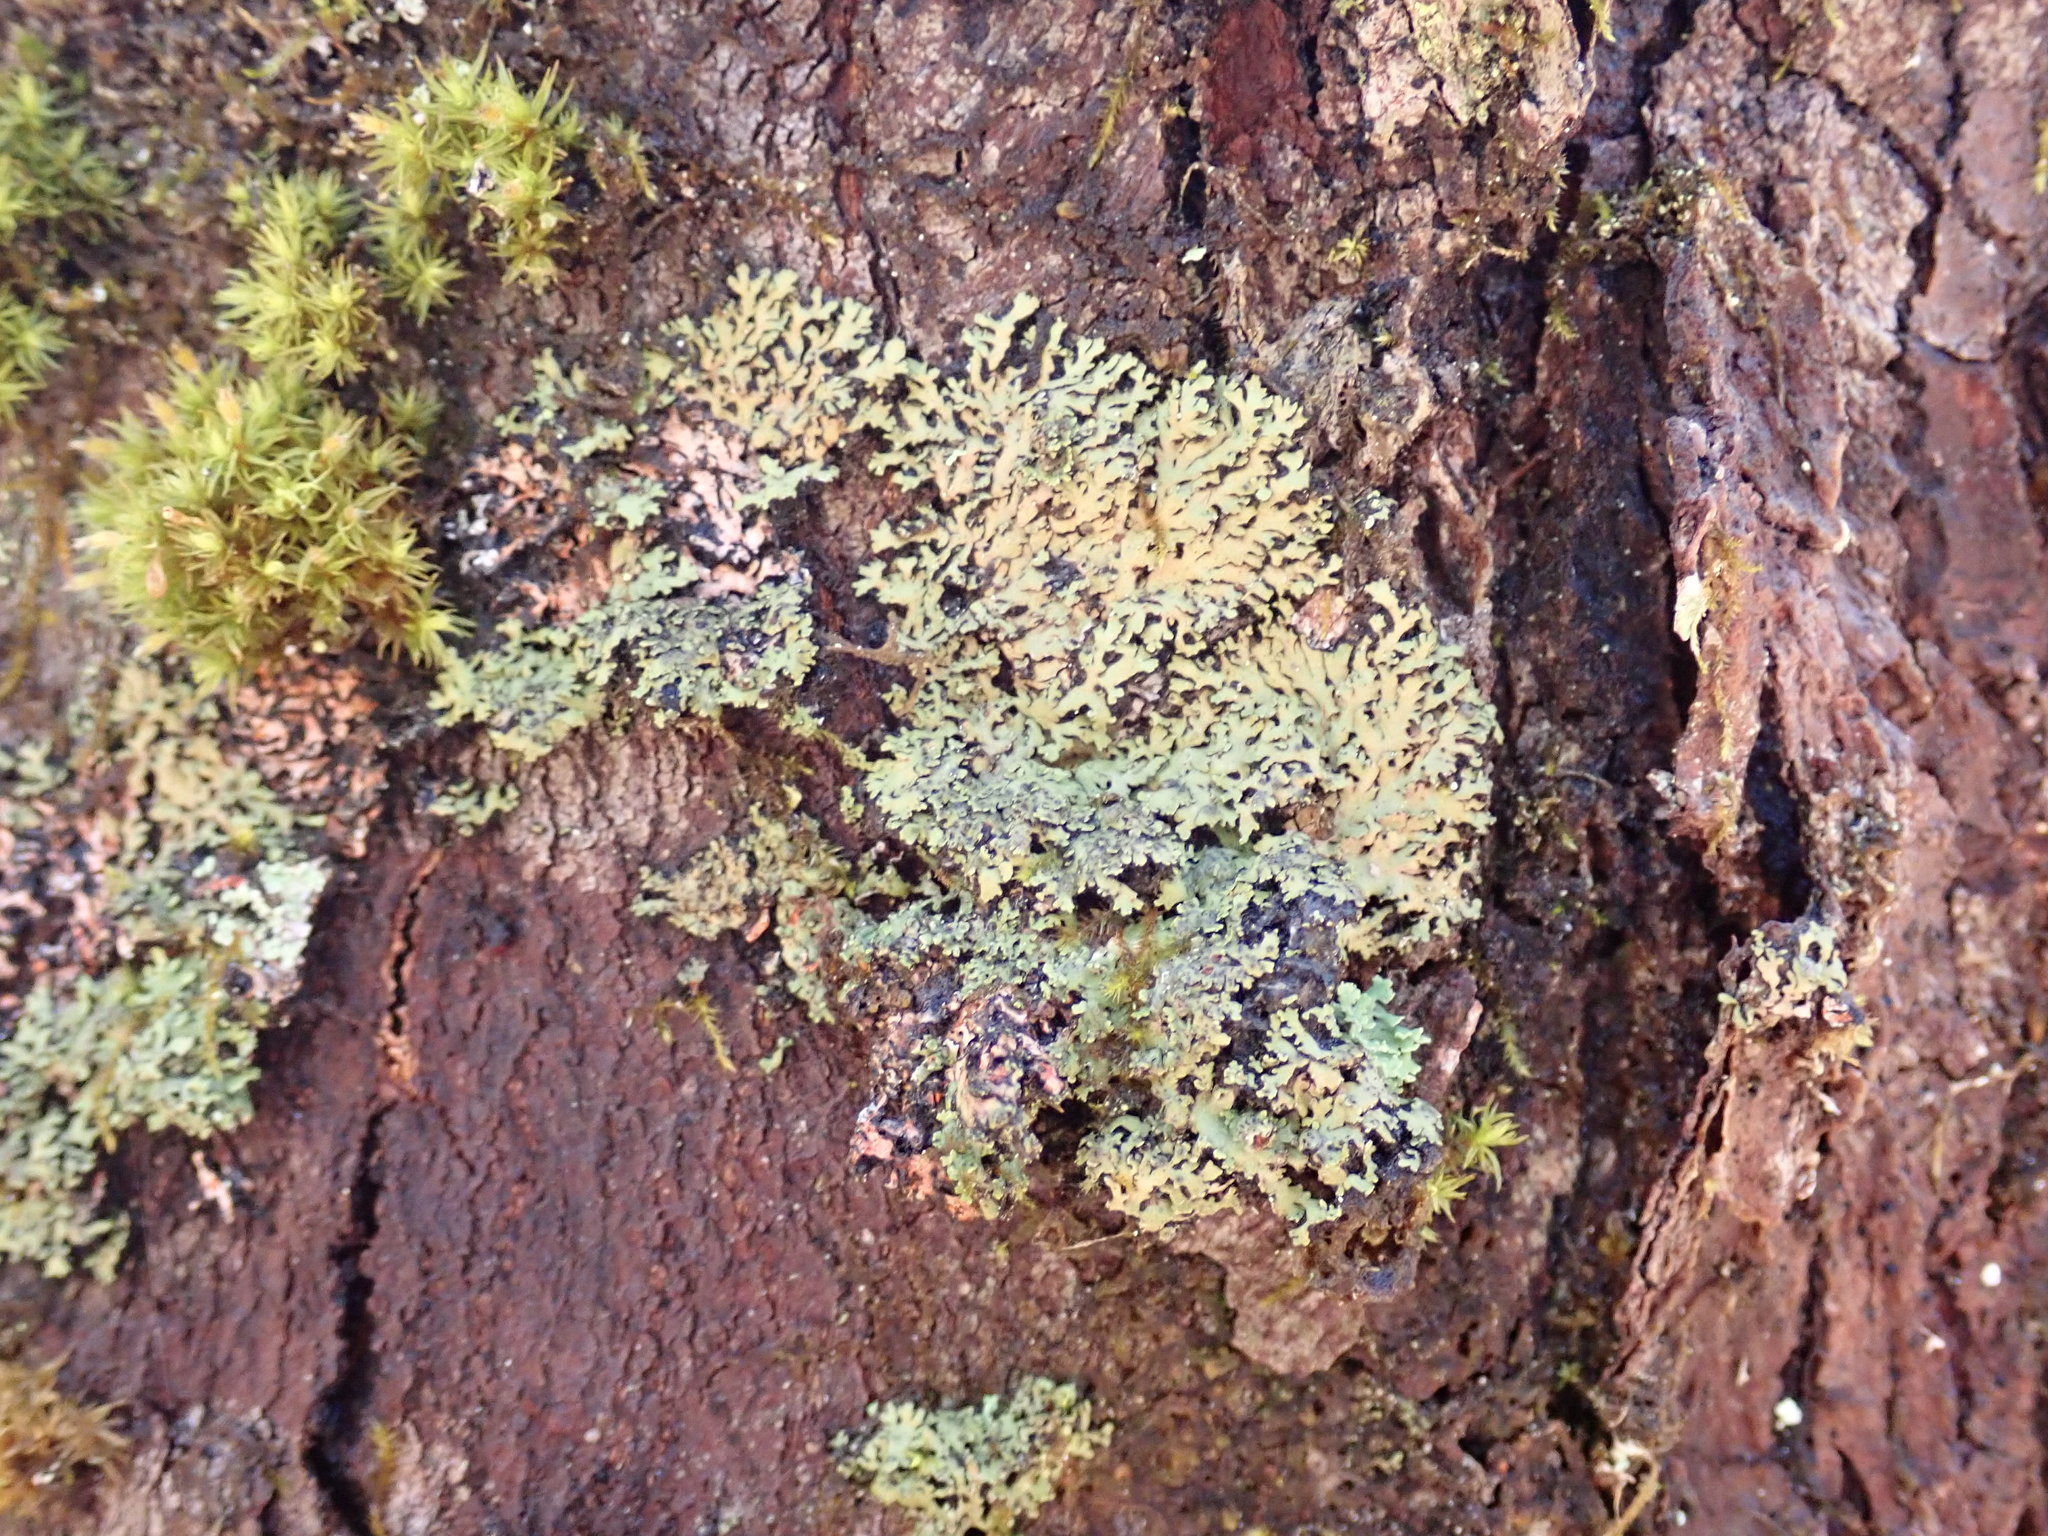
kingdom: Fungi
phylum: Ascomycota
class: Lecanoromycetes
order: Caliciales
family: Physciaceae
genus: Phaeophyscia
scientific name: Phaeophyscia rubropulchra
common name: Orange-cored shadow lichen
